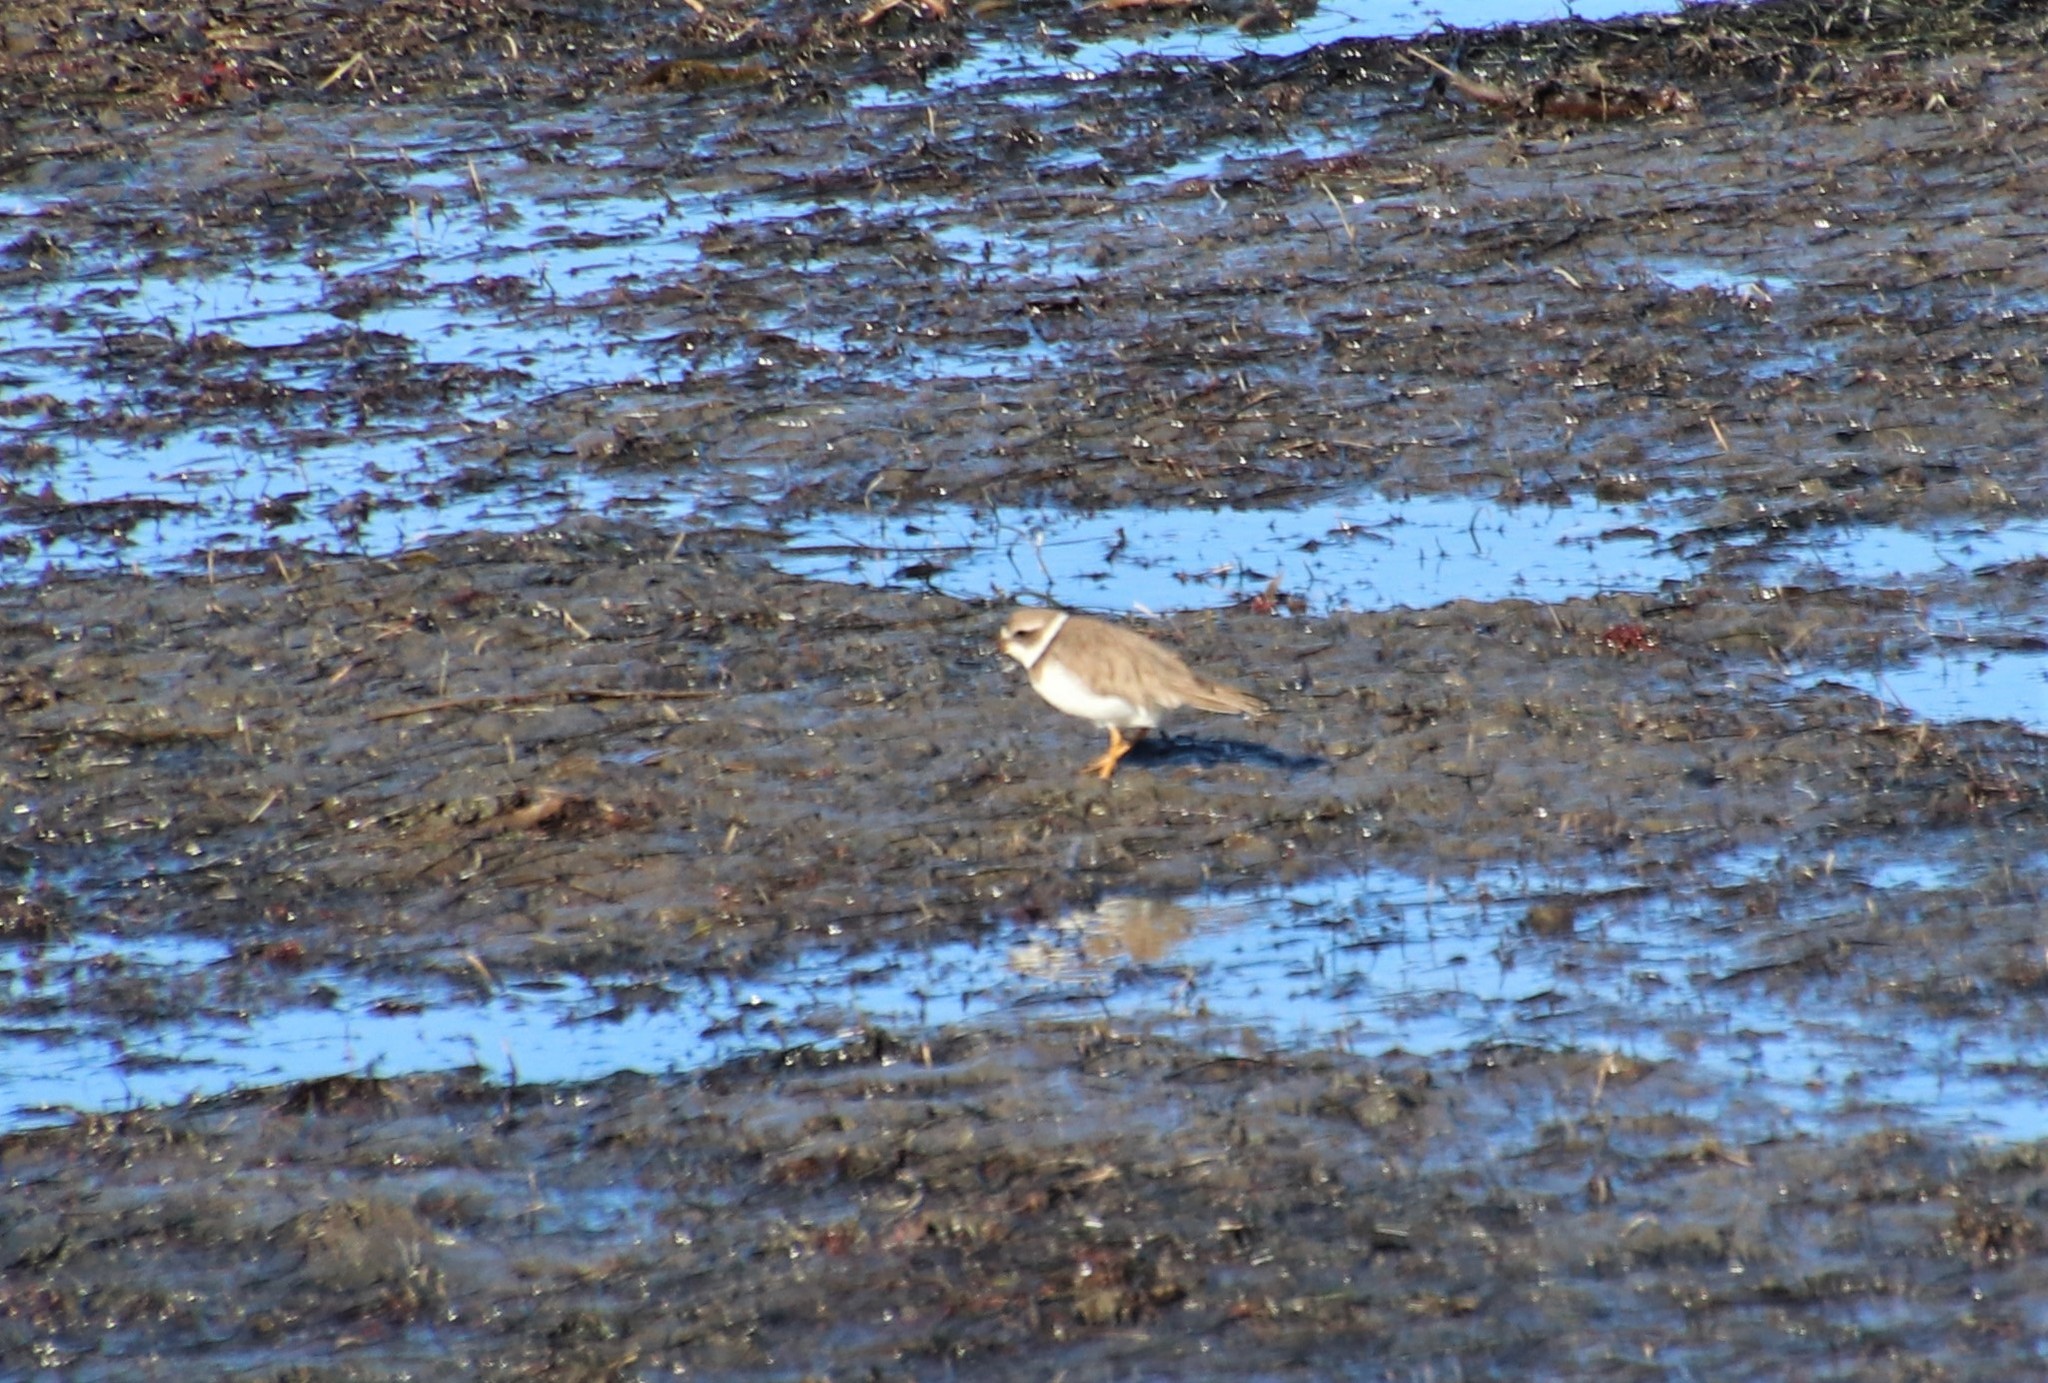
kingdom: Animalia
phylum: Chordata
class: Aves
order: Charadriiformes
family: Charadriidae
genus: Charadrius
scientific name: Charadrius semipalmatus
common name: Semipalmated plover
